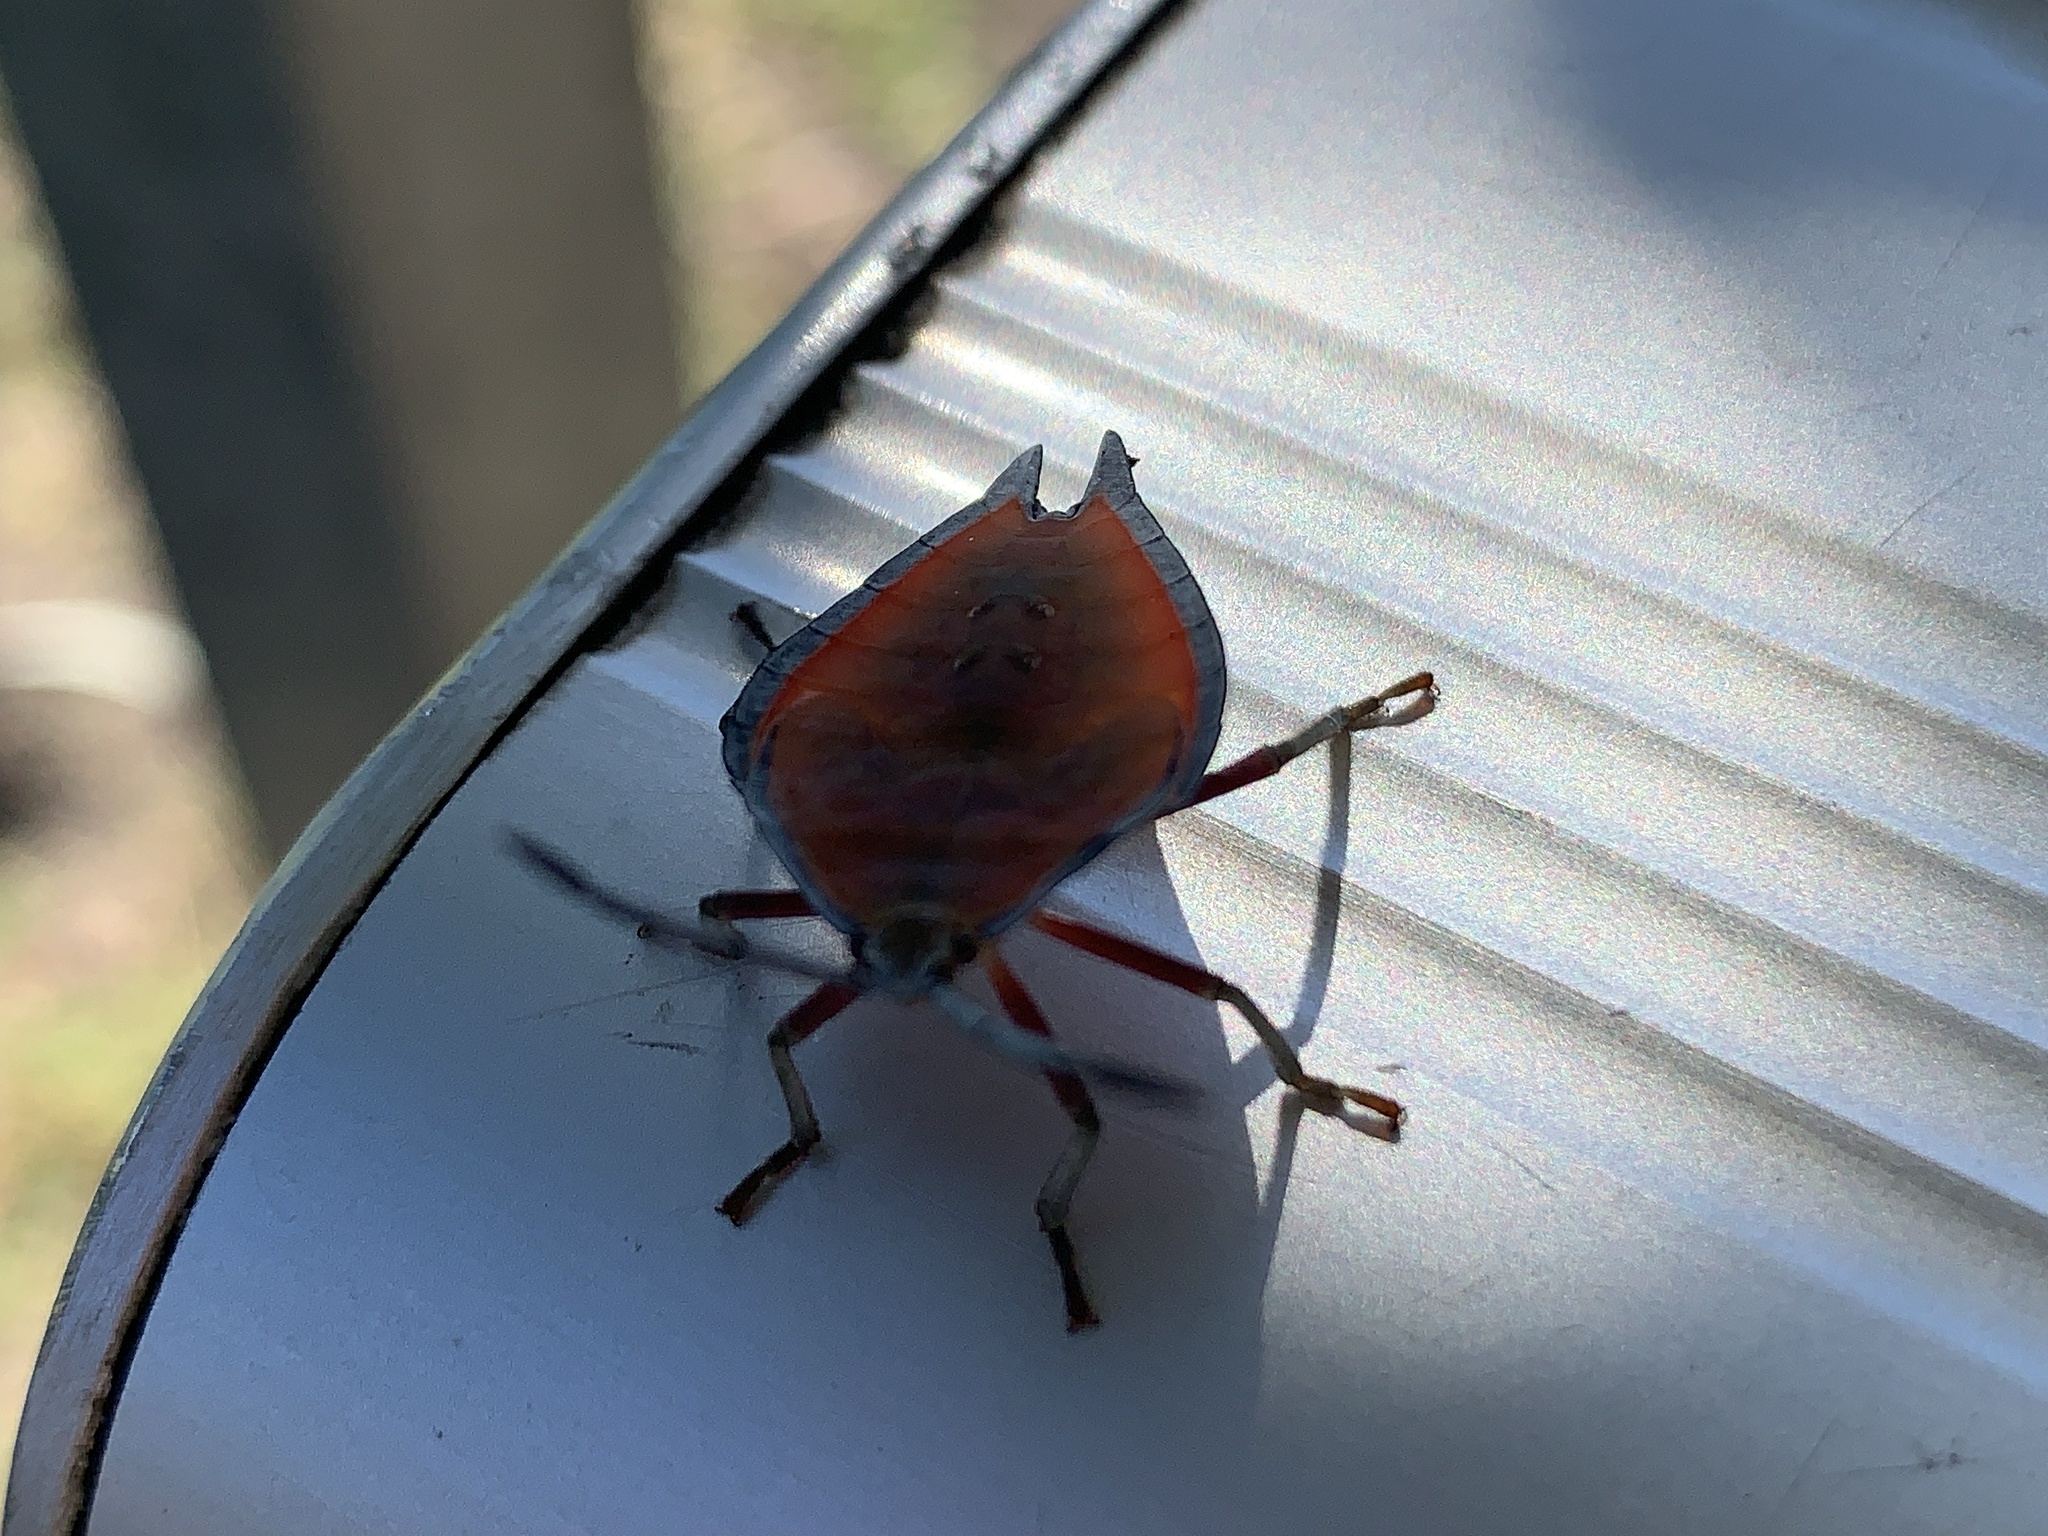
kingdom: Animalia
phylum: Arthropoda
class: Insecta
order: Hemiptera
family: Tessaratomidae
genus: Lyramorpha
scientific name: Lyramorpha rosea
